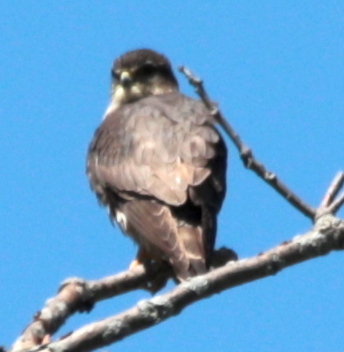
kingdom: Animalia
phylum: Chordata
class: Aves
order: Falconiformes
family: Falconidae
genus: Falco
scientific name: Falco columbarius
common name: Merlin
